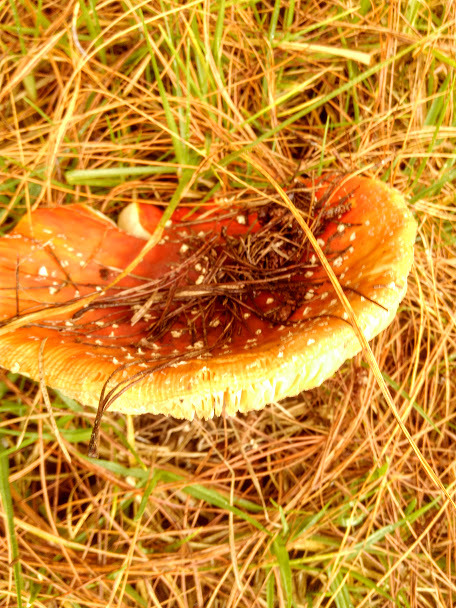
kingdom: Fungi
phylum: Basidiomycota
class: Agaricomycetes
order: Agaricales
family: Amanitaceae
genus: Amanita
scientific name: Amanita muscaria
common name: Fly agaric
